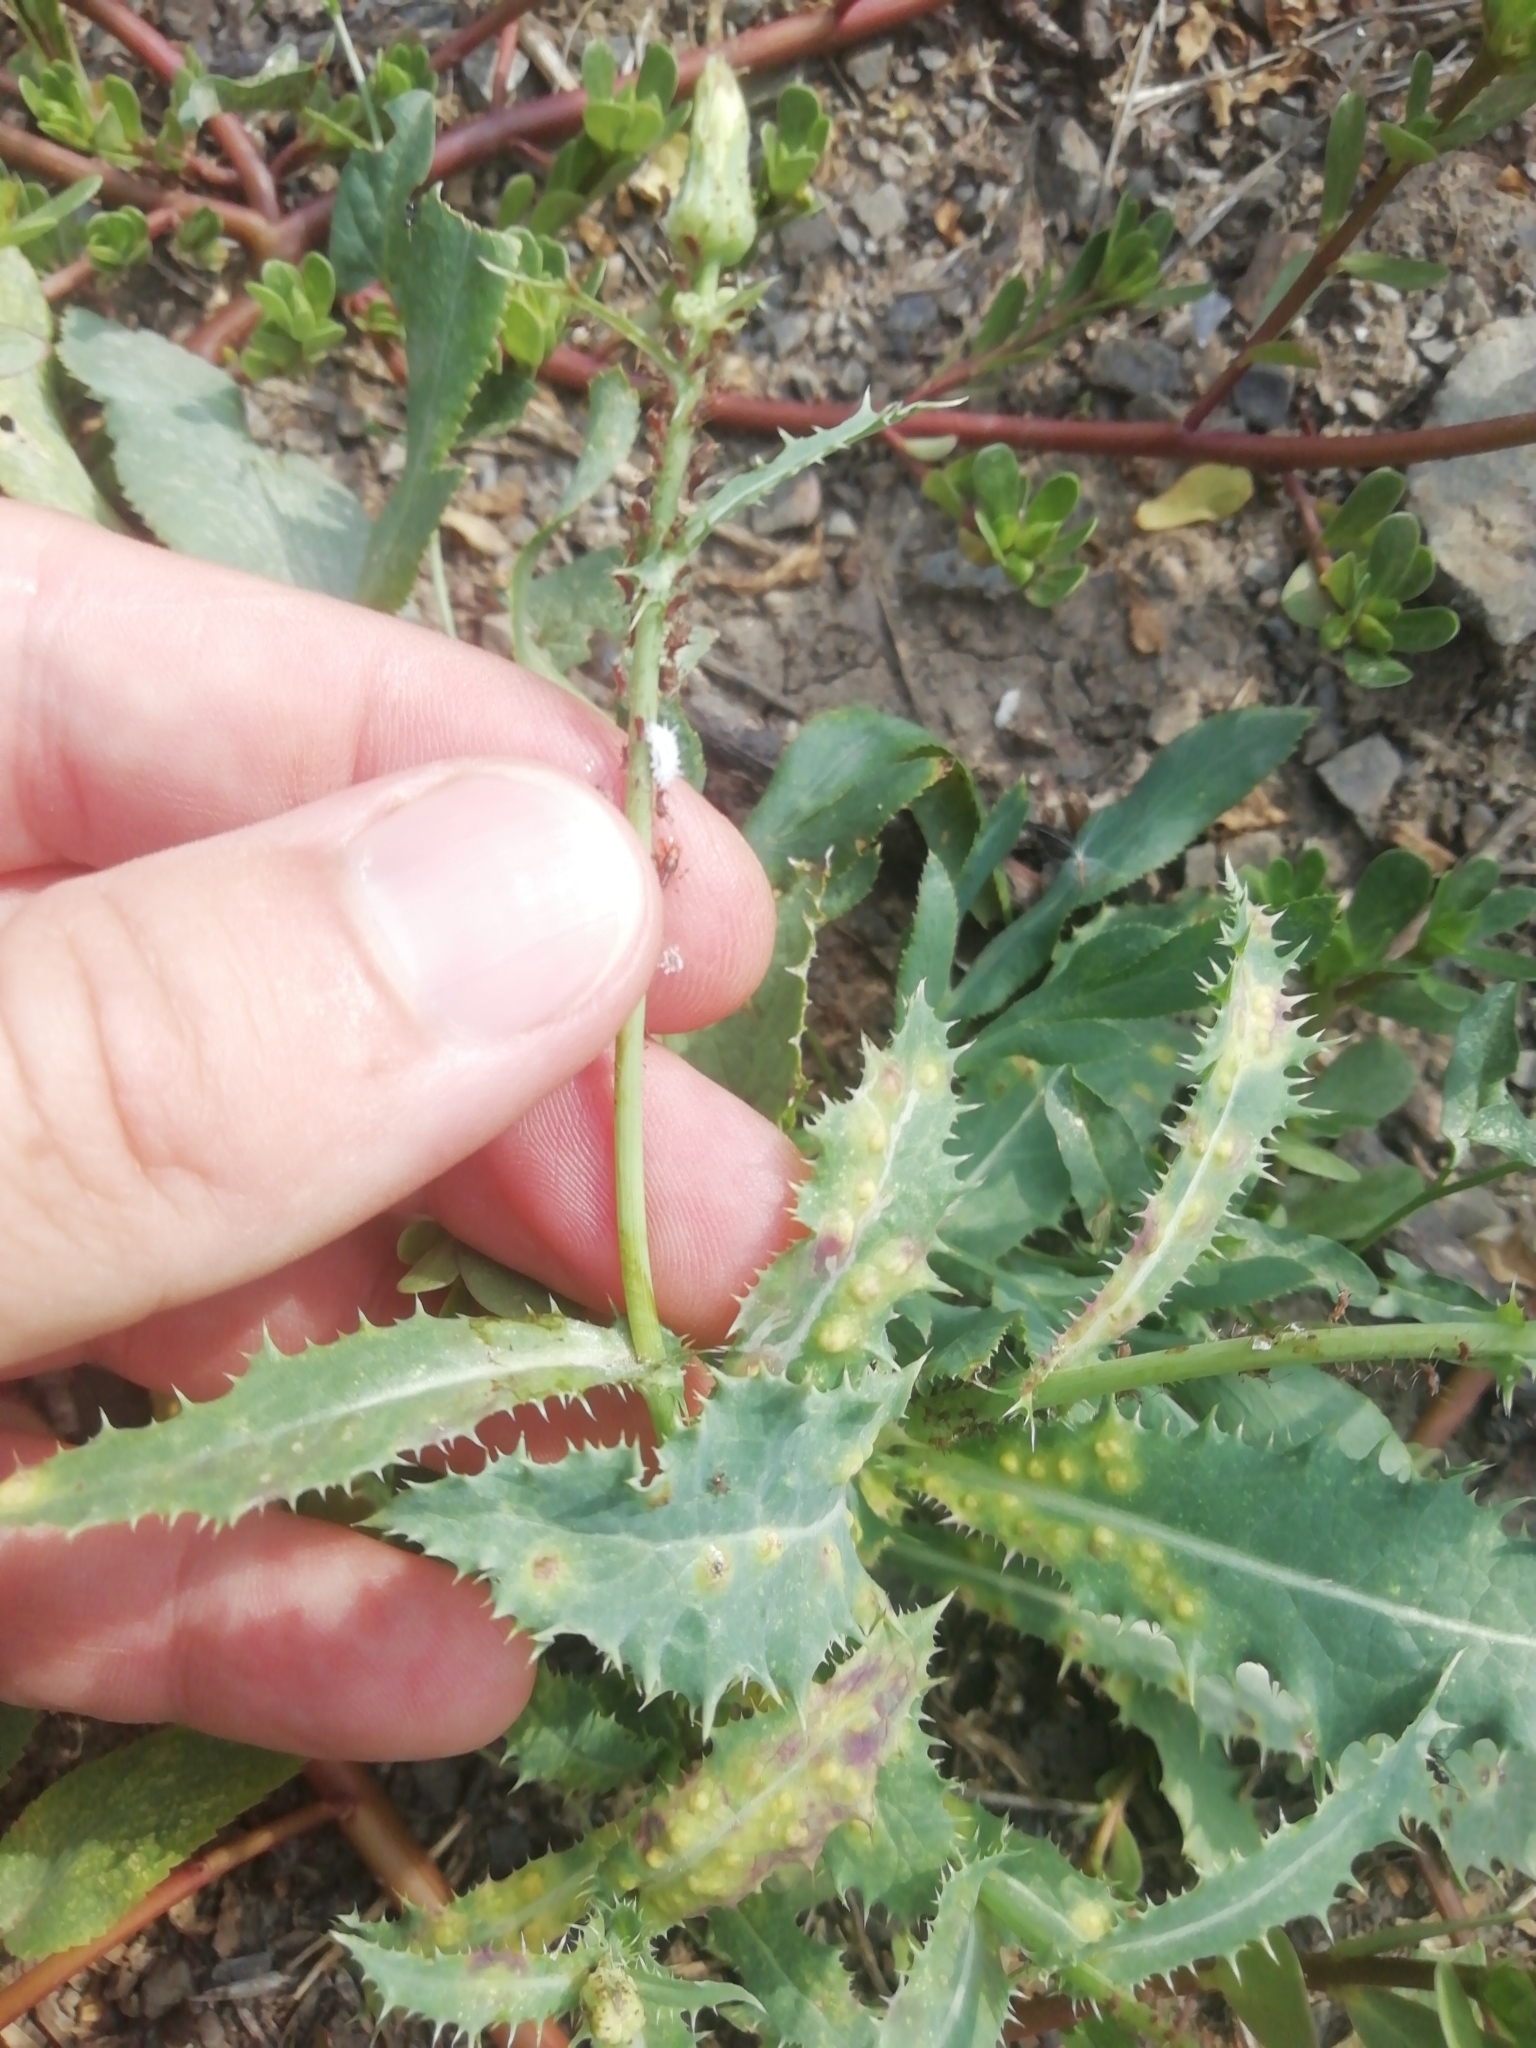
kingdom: Plantae
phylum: Tracheophyta
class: Magnoliopsida
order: Asterales
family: Asteraceae
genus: Sonchus
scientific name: Sonchus asper
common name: Prickly sow-thistle
